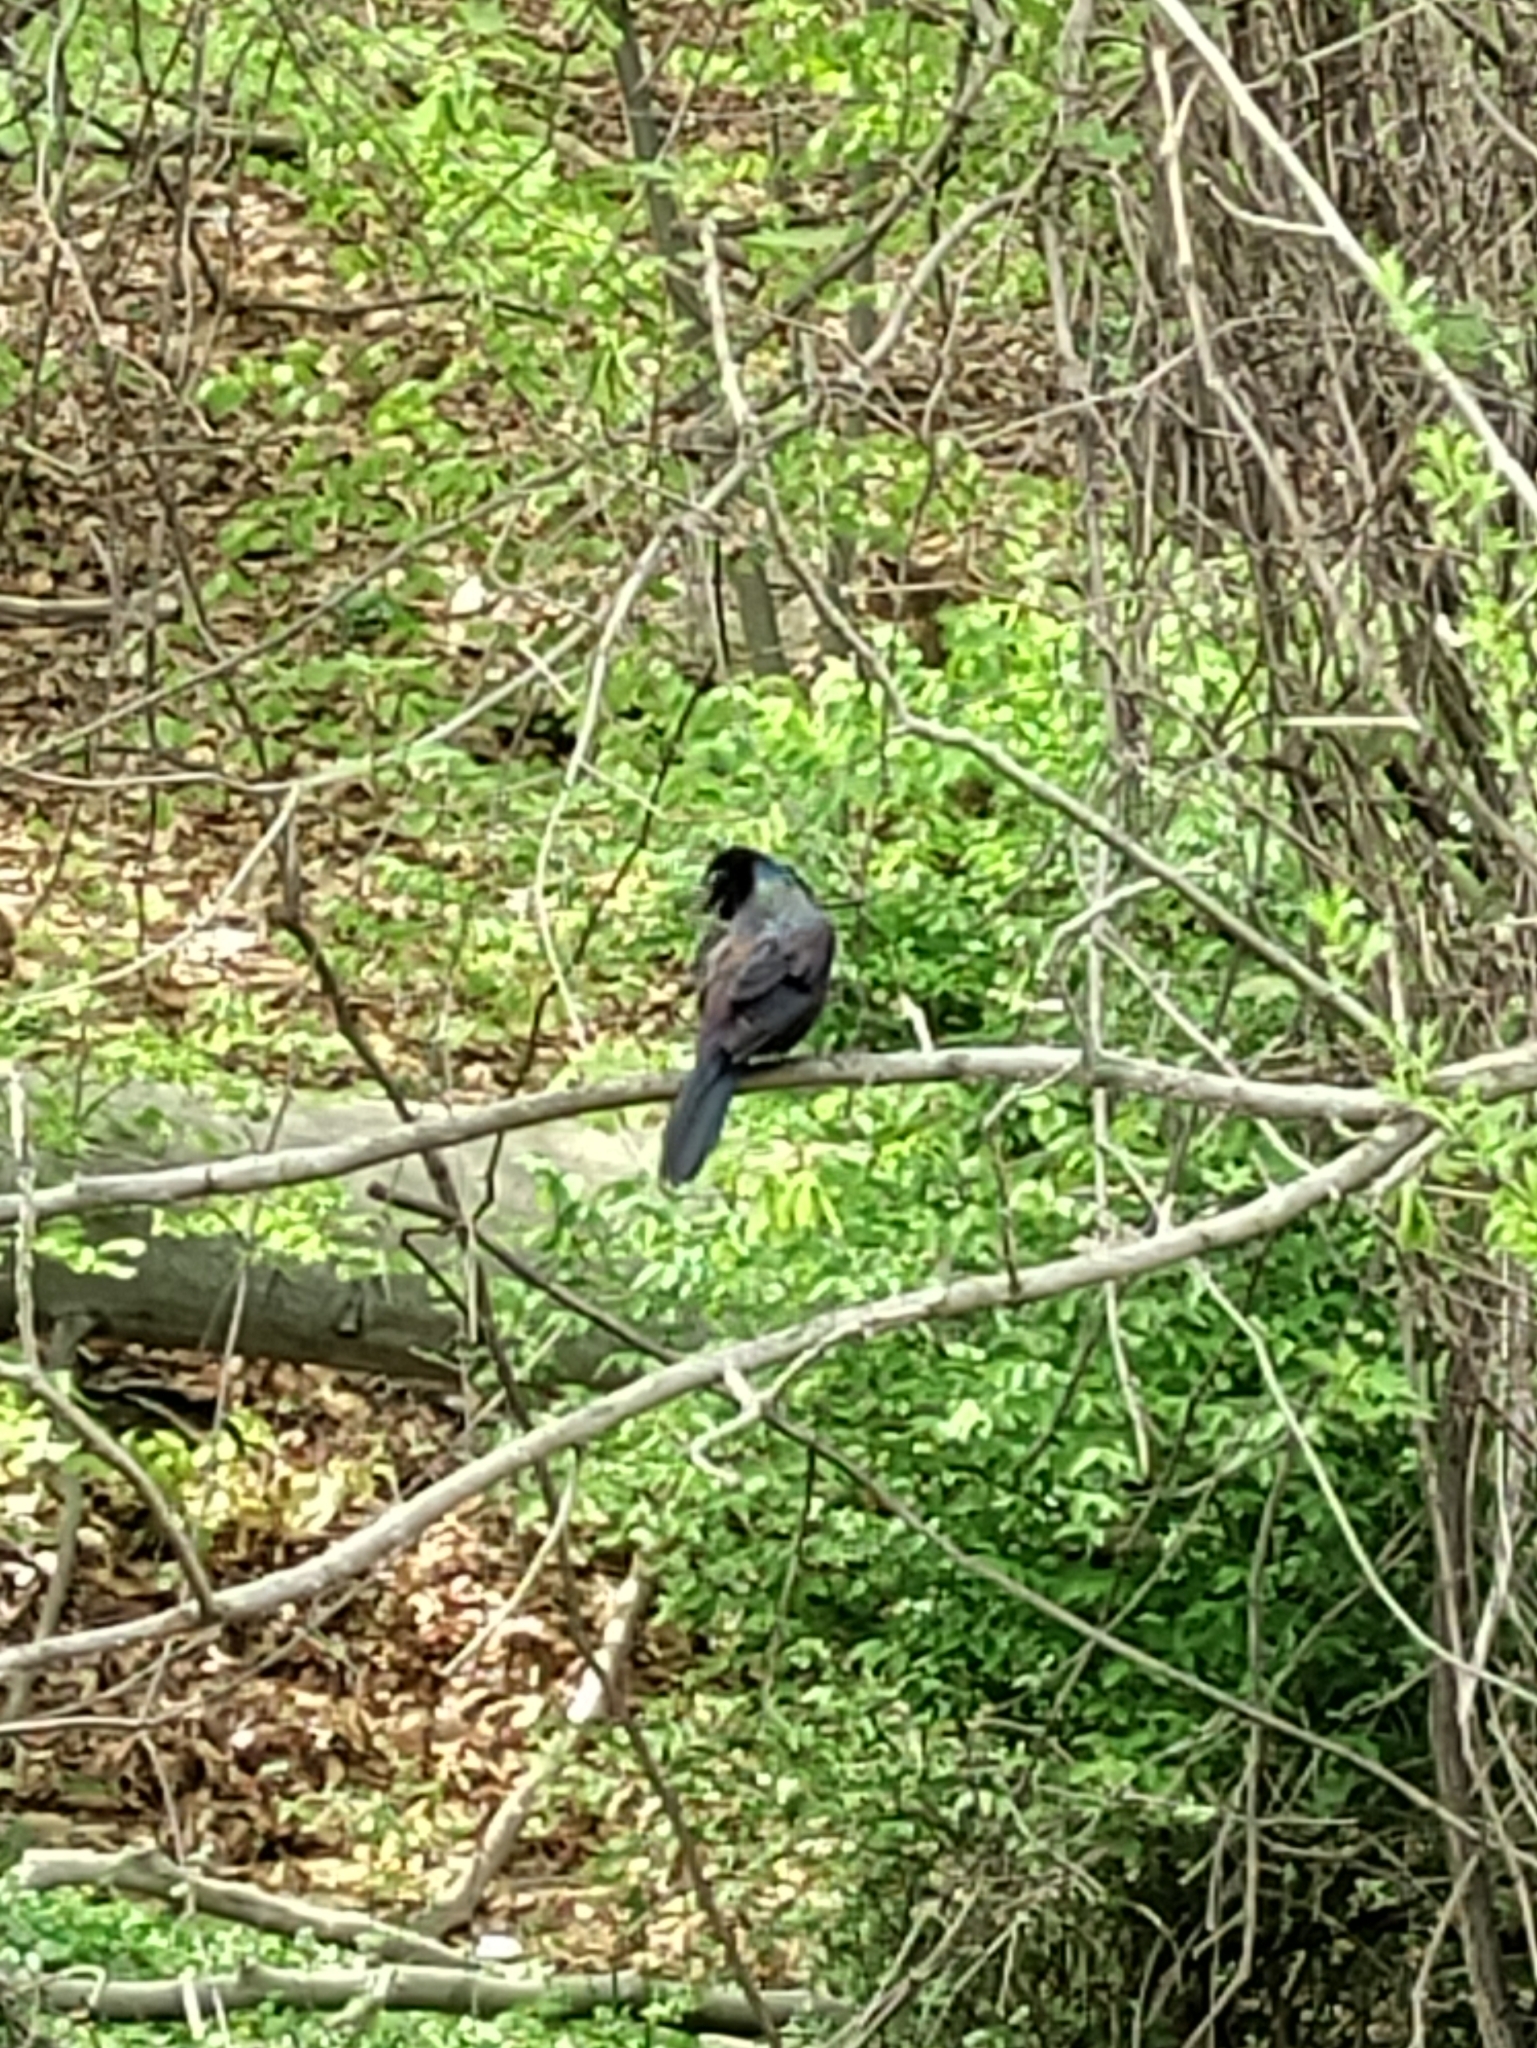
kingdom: Animalia
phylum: Chordata
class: Aves
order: Passeriformes
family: Icteridae
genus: Quiscalus
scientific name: Quiscalus quiscula
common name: Common grackle
